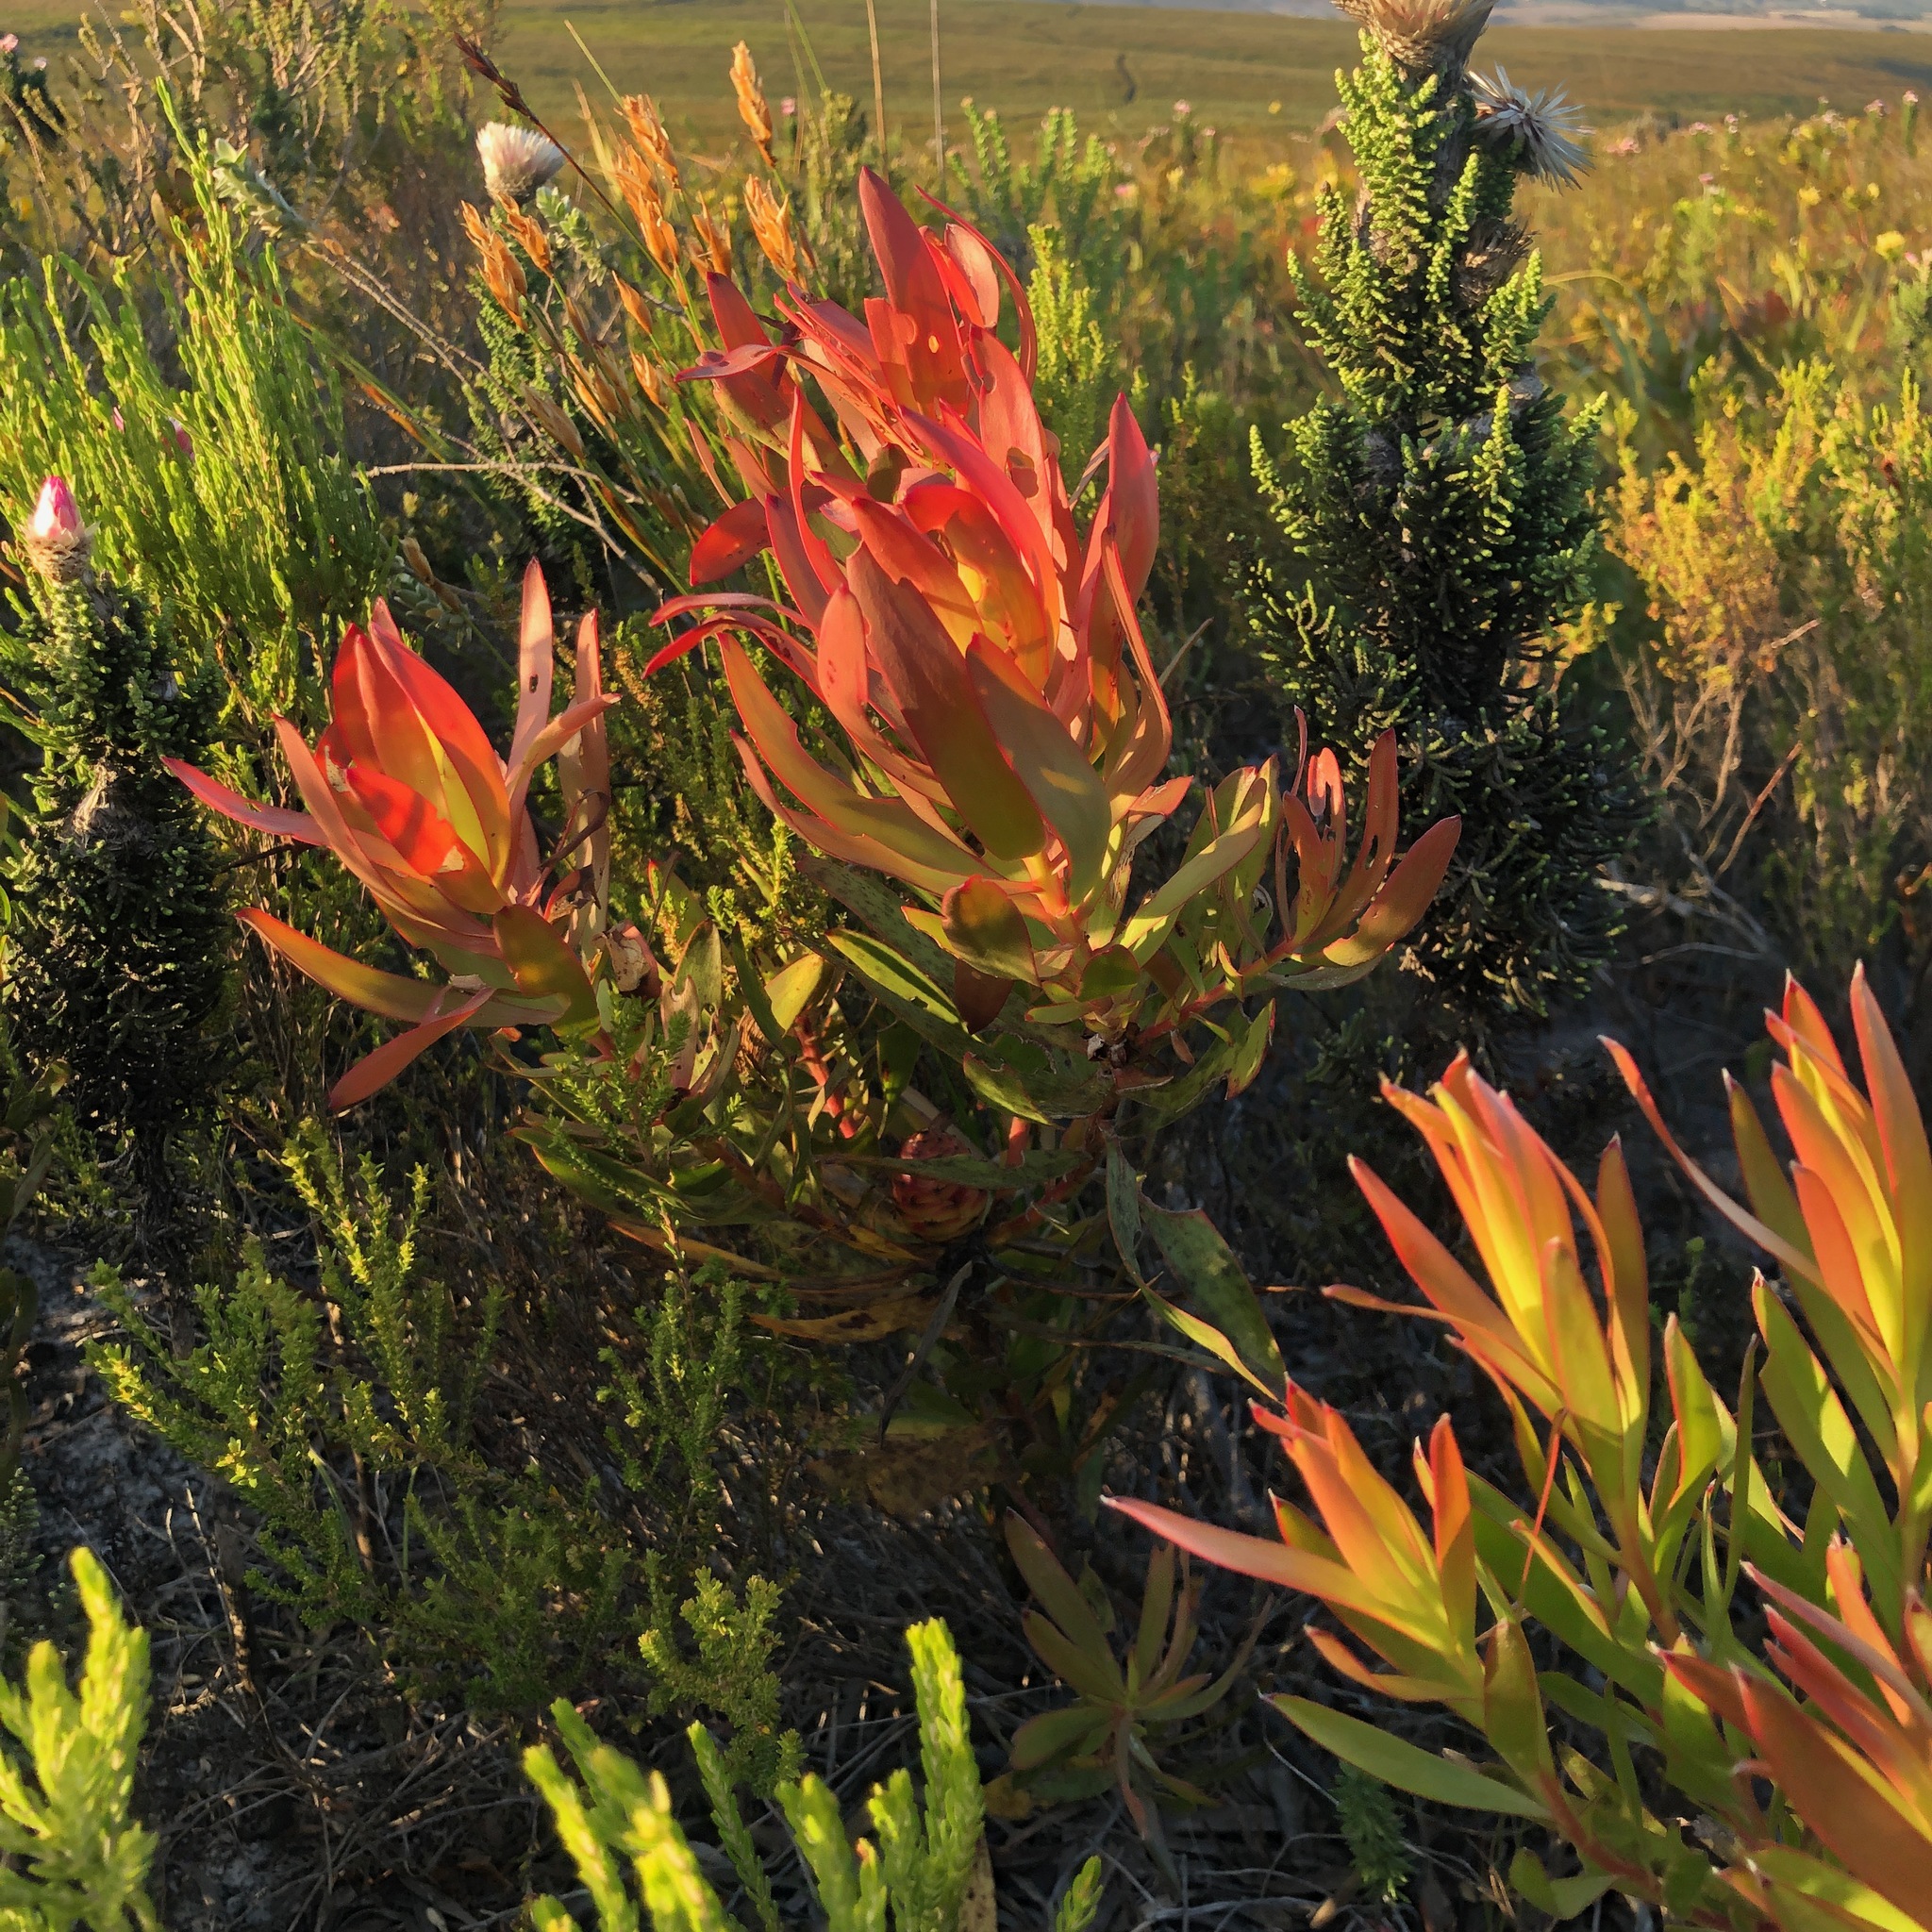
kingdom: Plantae
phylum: Tracheophyta
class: Magnoliopsida
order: Proteales
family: Proteaceae
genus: Leucadendron
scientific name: Leucadendron gandogeri
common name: Broad-leaf conebush
